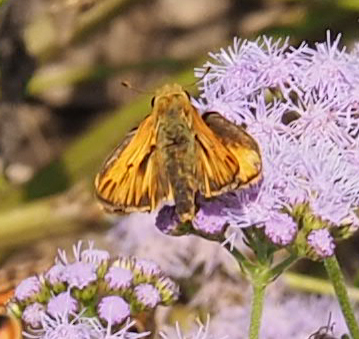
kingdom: Animalia
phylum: Arthropoda
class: Insecta
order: Lepidoptera
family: Hesperiidae
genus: Hylephila
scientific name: Hylephila phyleus
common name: Fiery skipper
